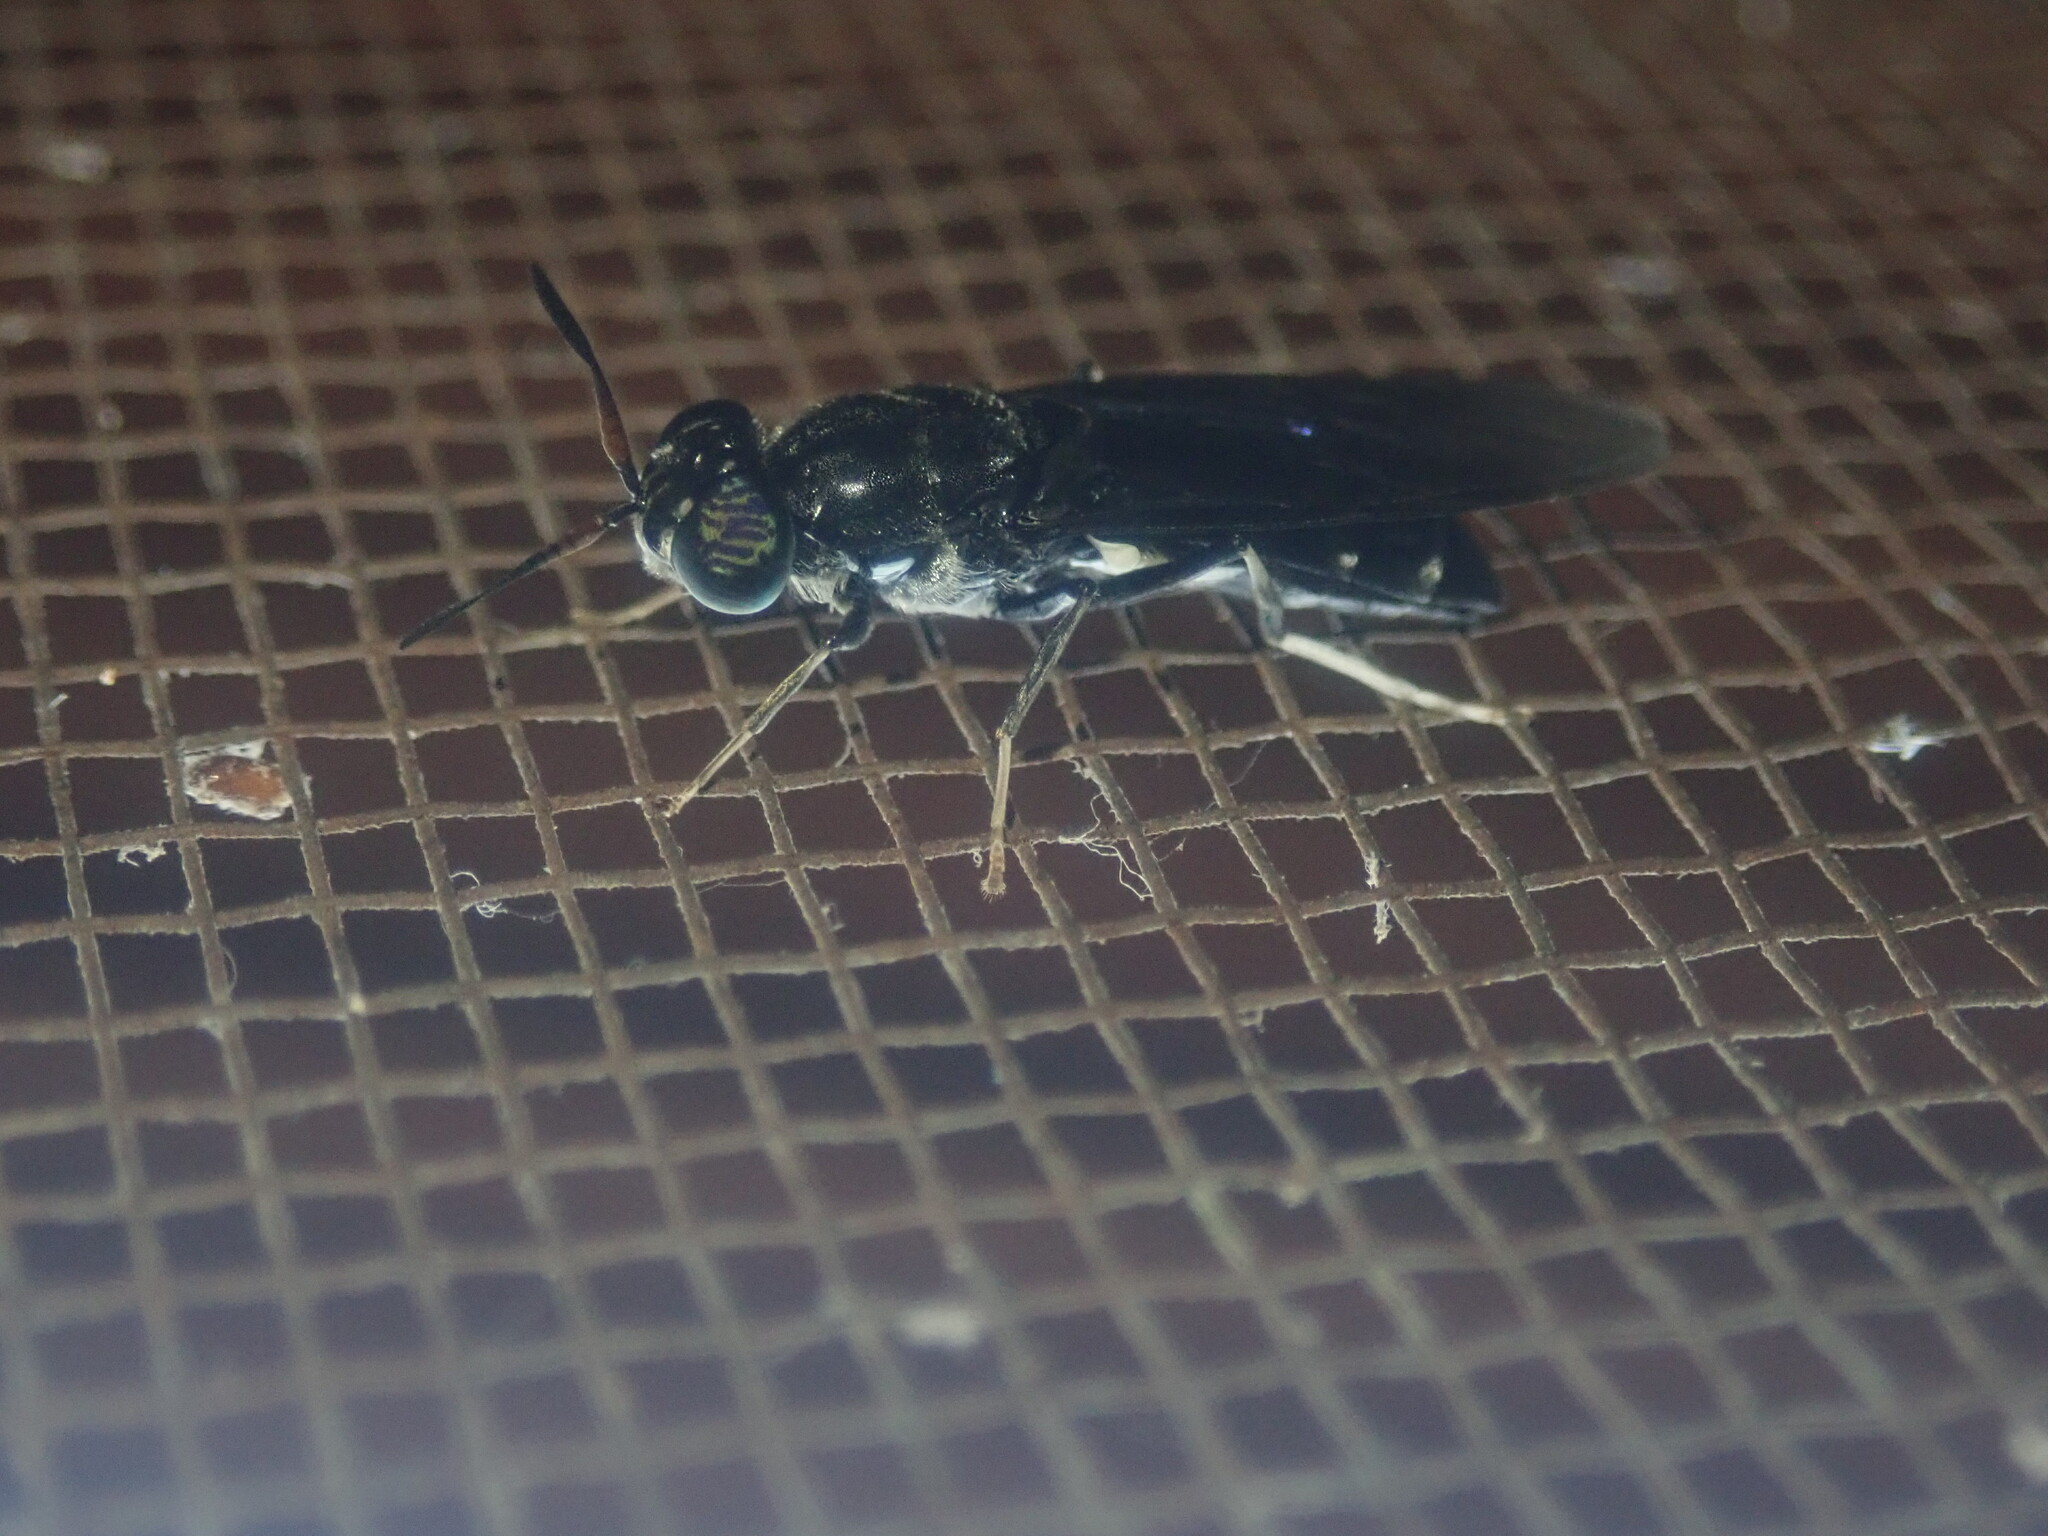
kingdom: Animalia
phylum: Arthropoda
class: Insecta
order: Diptera
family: Stratiomyidae
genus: Hermetia
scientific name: Hermetia illucens
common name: Black soldier fly
